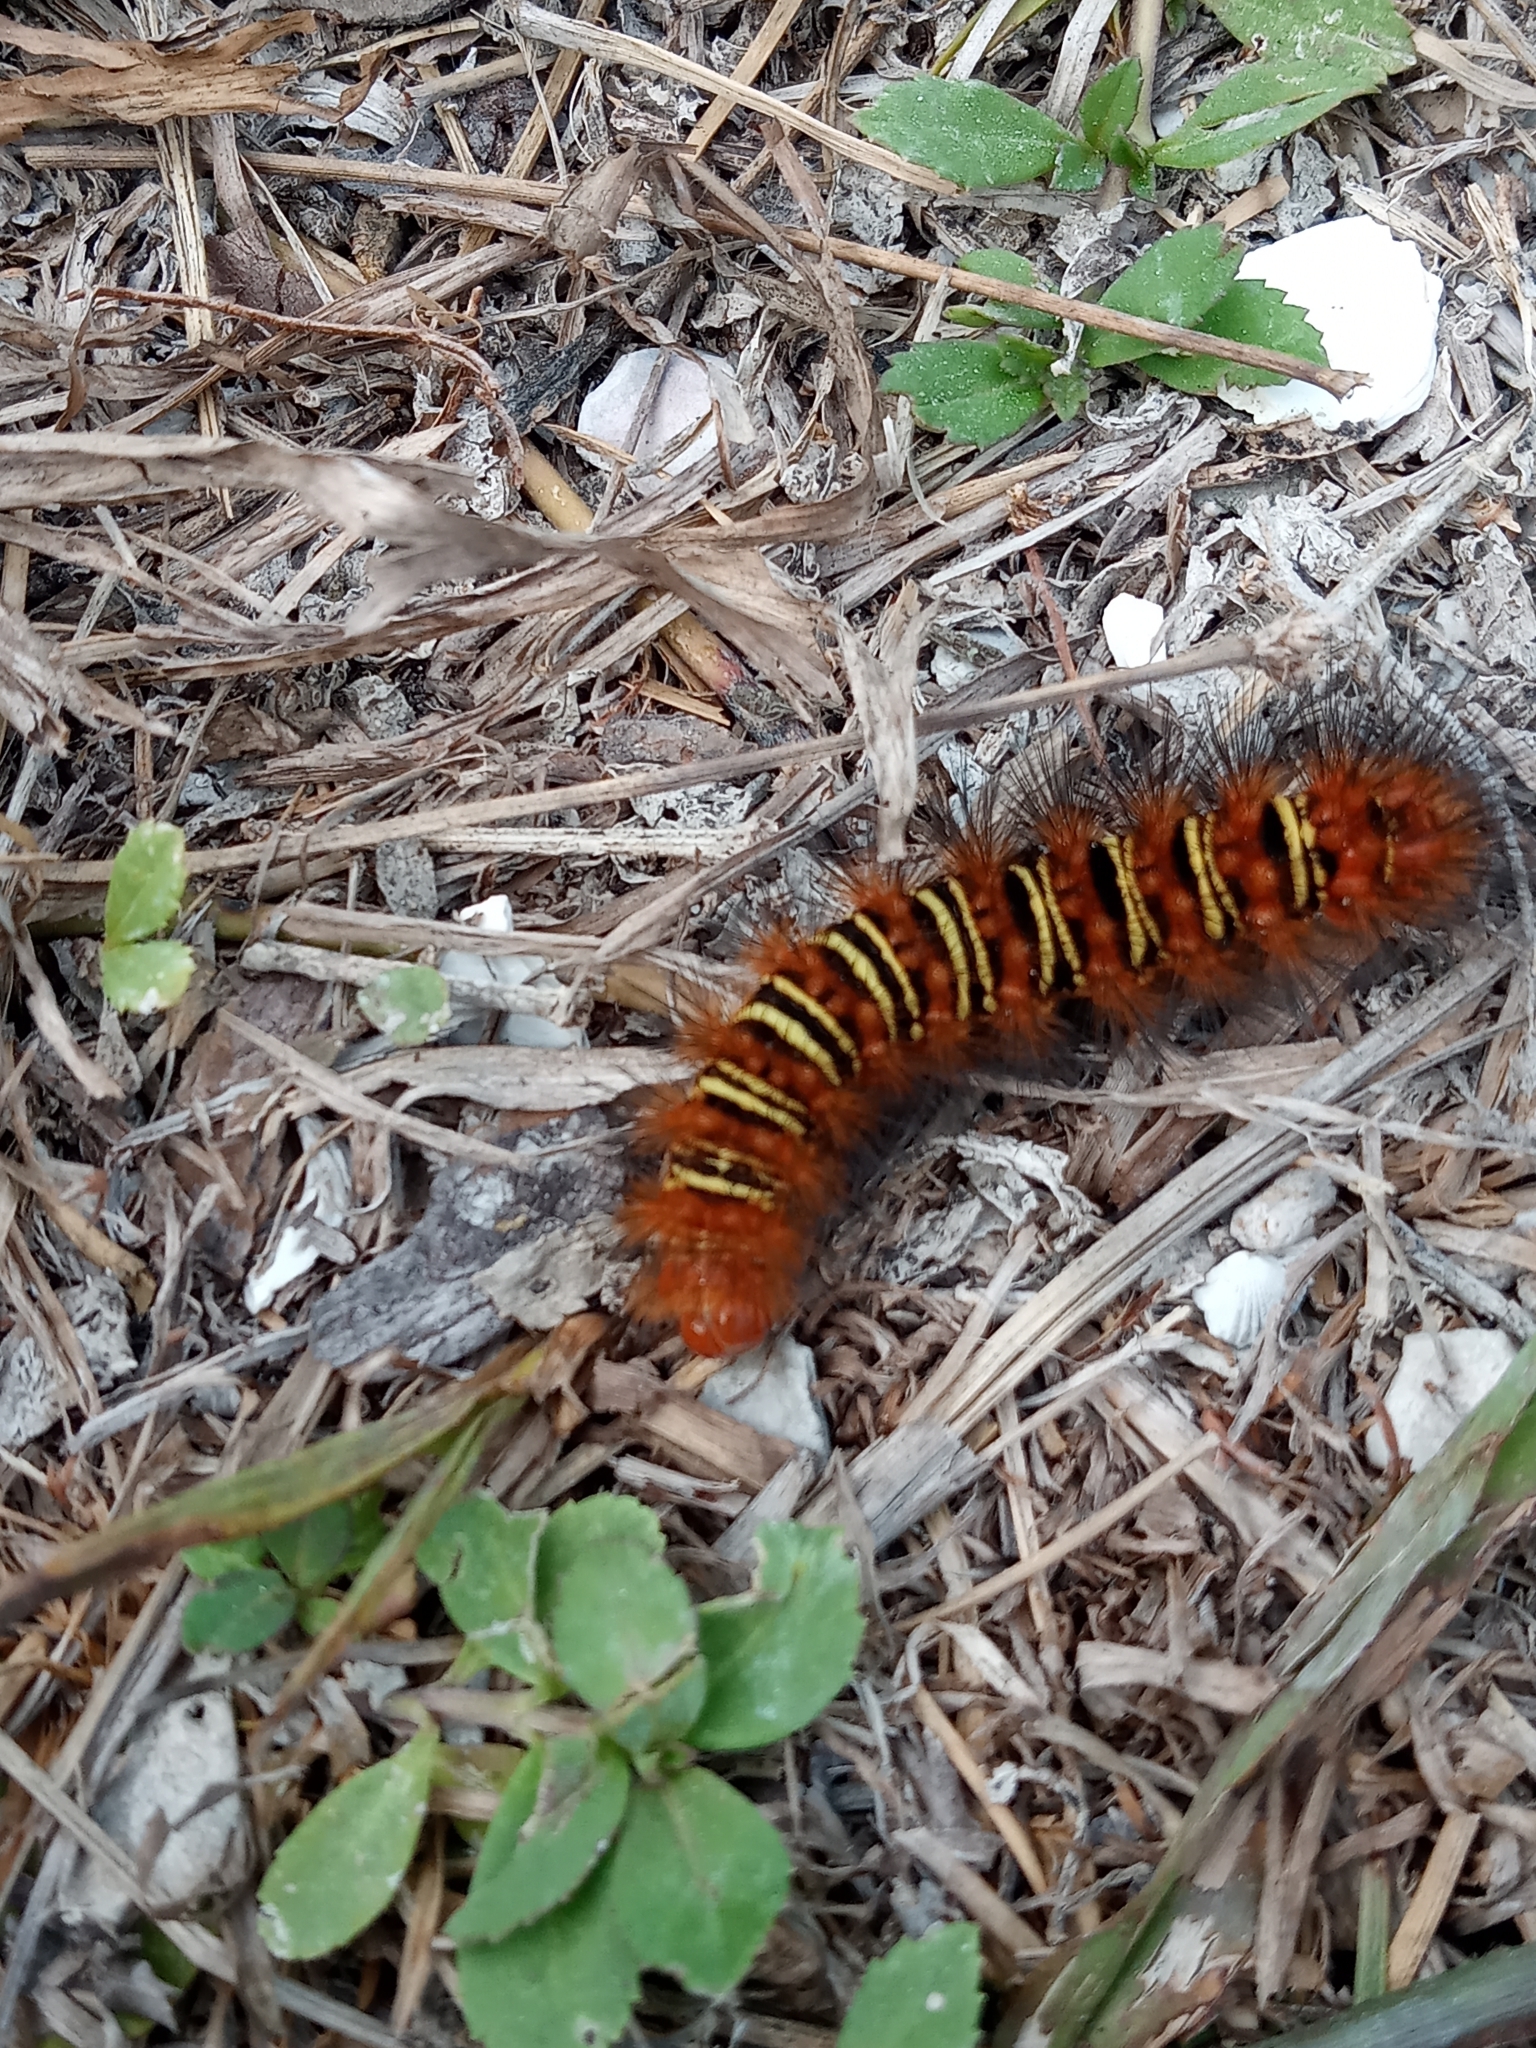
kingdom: Animalia
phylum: Arthropoda
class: Insecta
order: Lepidoptera
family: Erebidae
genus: Seirarctia
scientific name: Seirarctia echo
